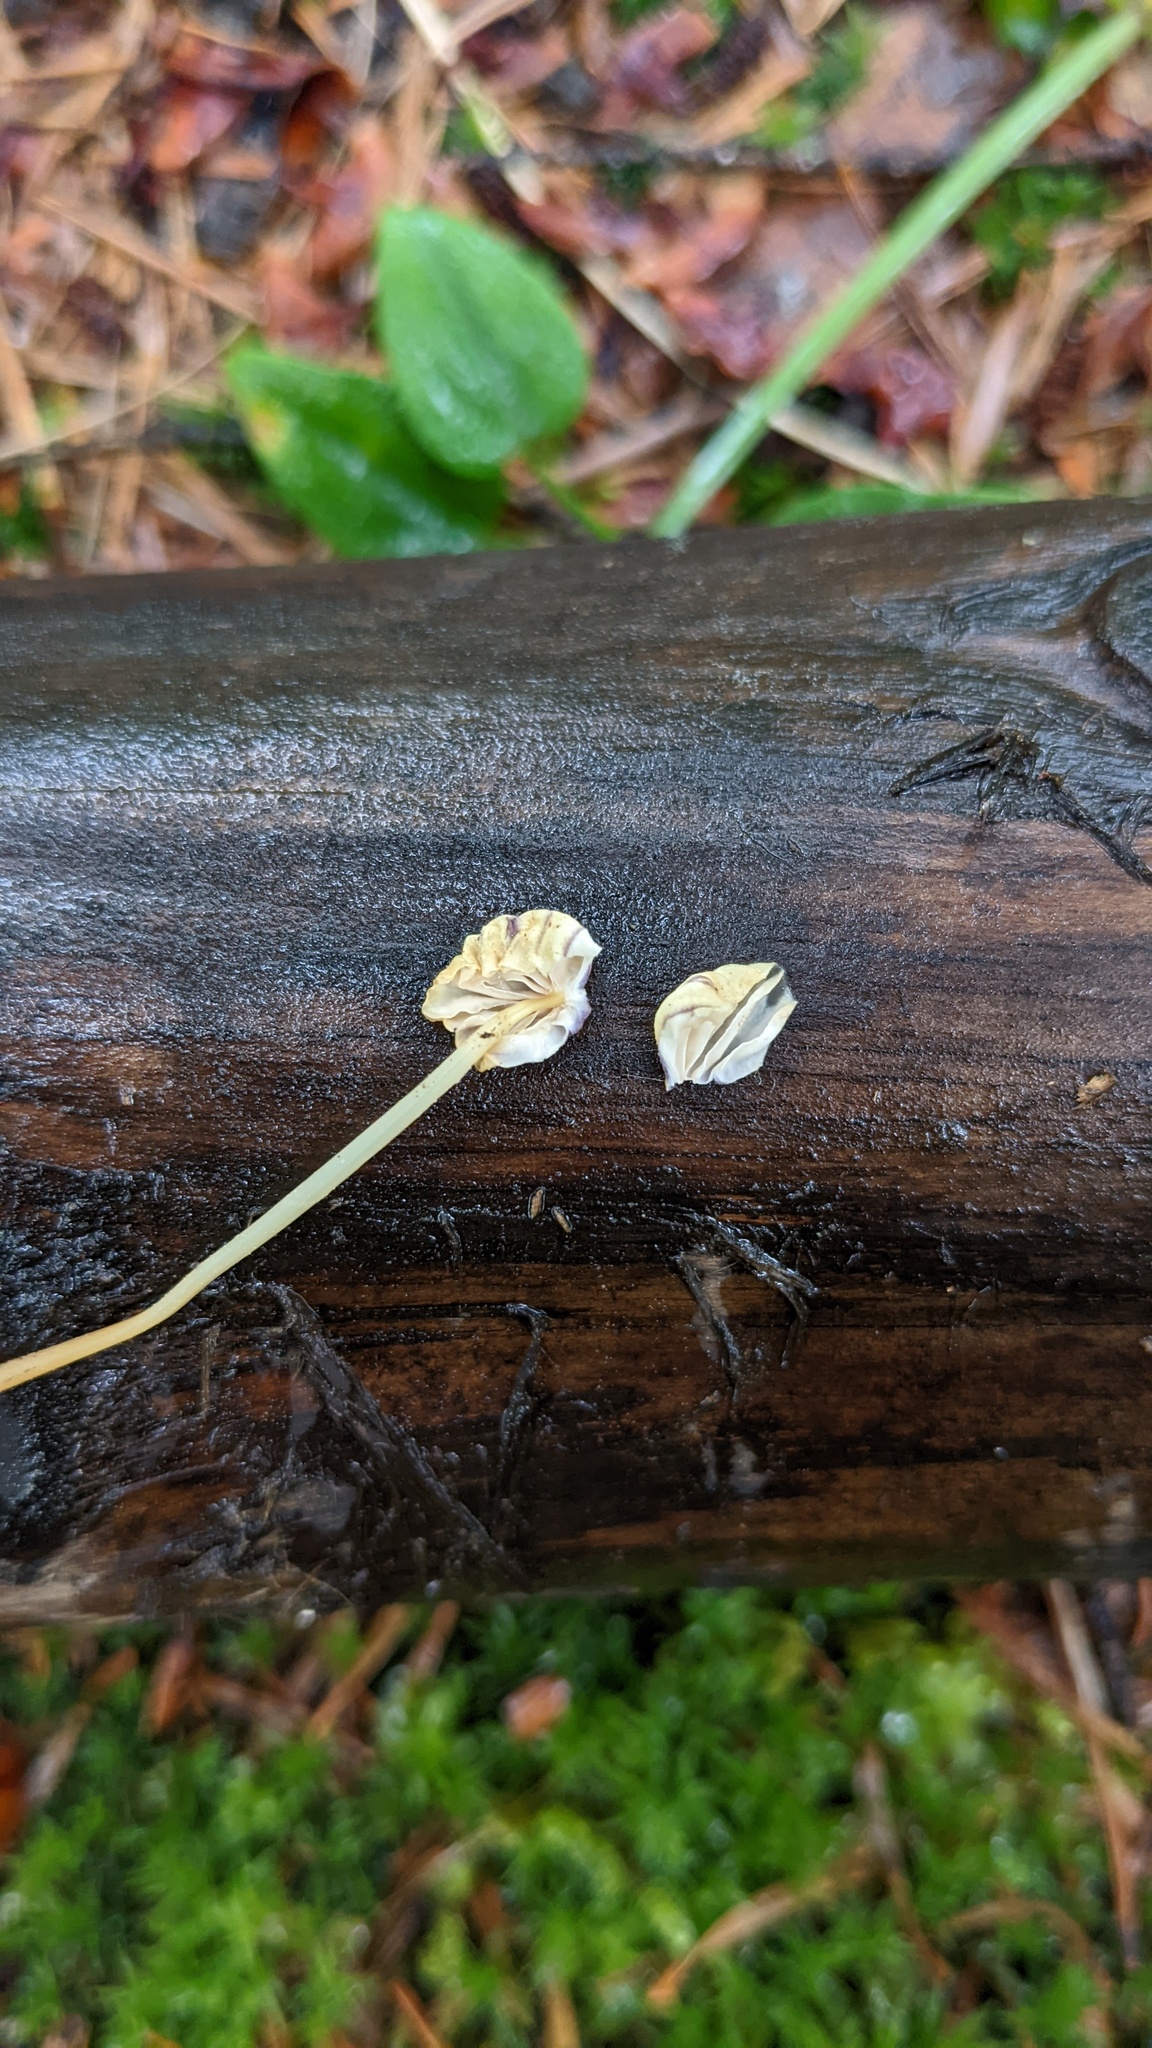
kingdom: Fungi
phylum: Basidiomycota
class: Agaricomycetes
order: Agaricales
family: Marasmiaceae
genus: Marasmius
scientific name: Marasmius purpureostriatus
